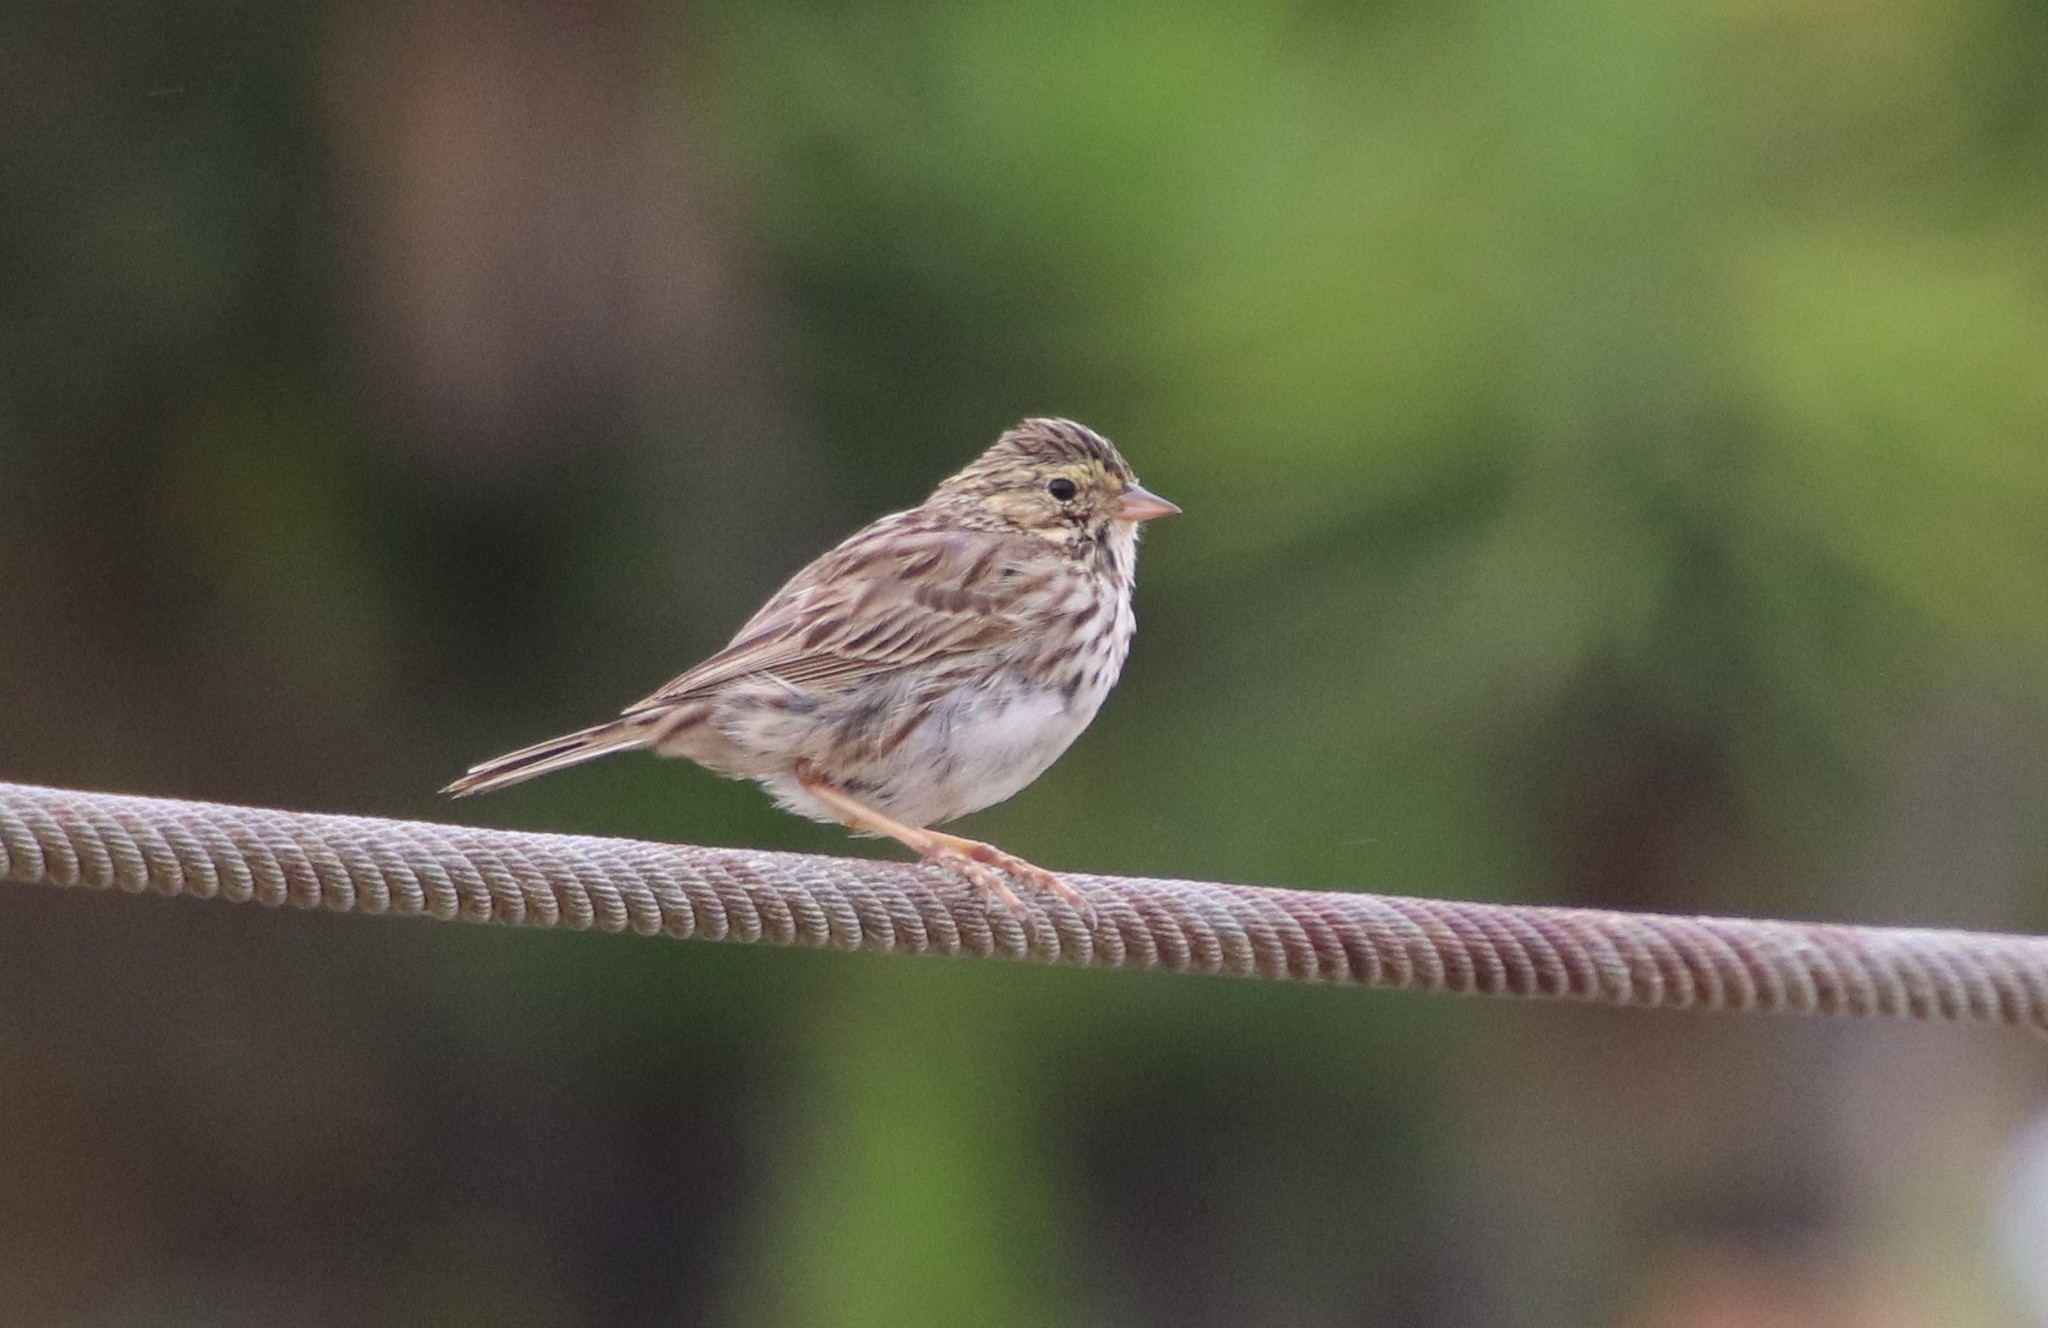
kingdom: Animalia
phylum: Chordata
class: Aves
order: Passeriformes
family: Passerellidae
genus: Passerculus
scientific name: Passerculus sandwichensis
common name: Savannah sparrow
